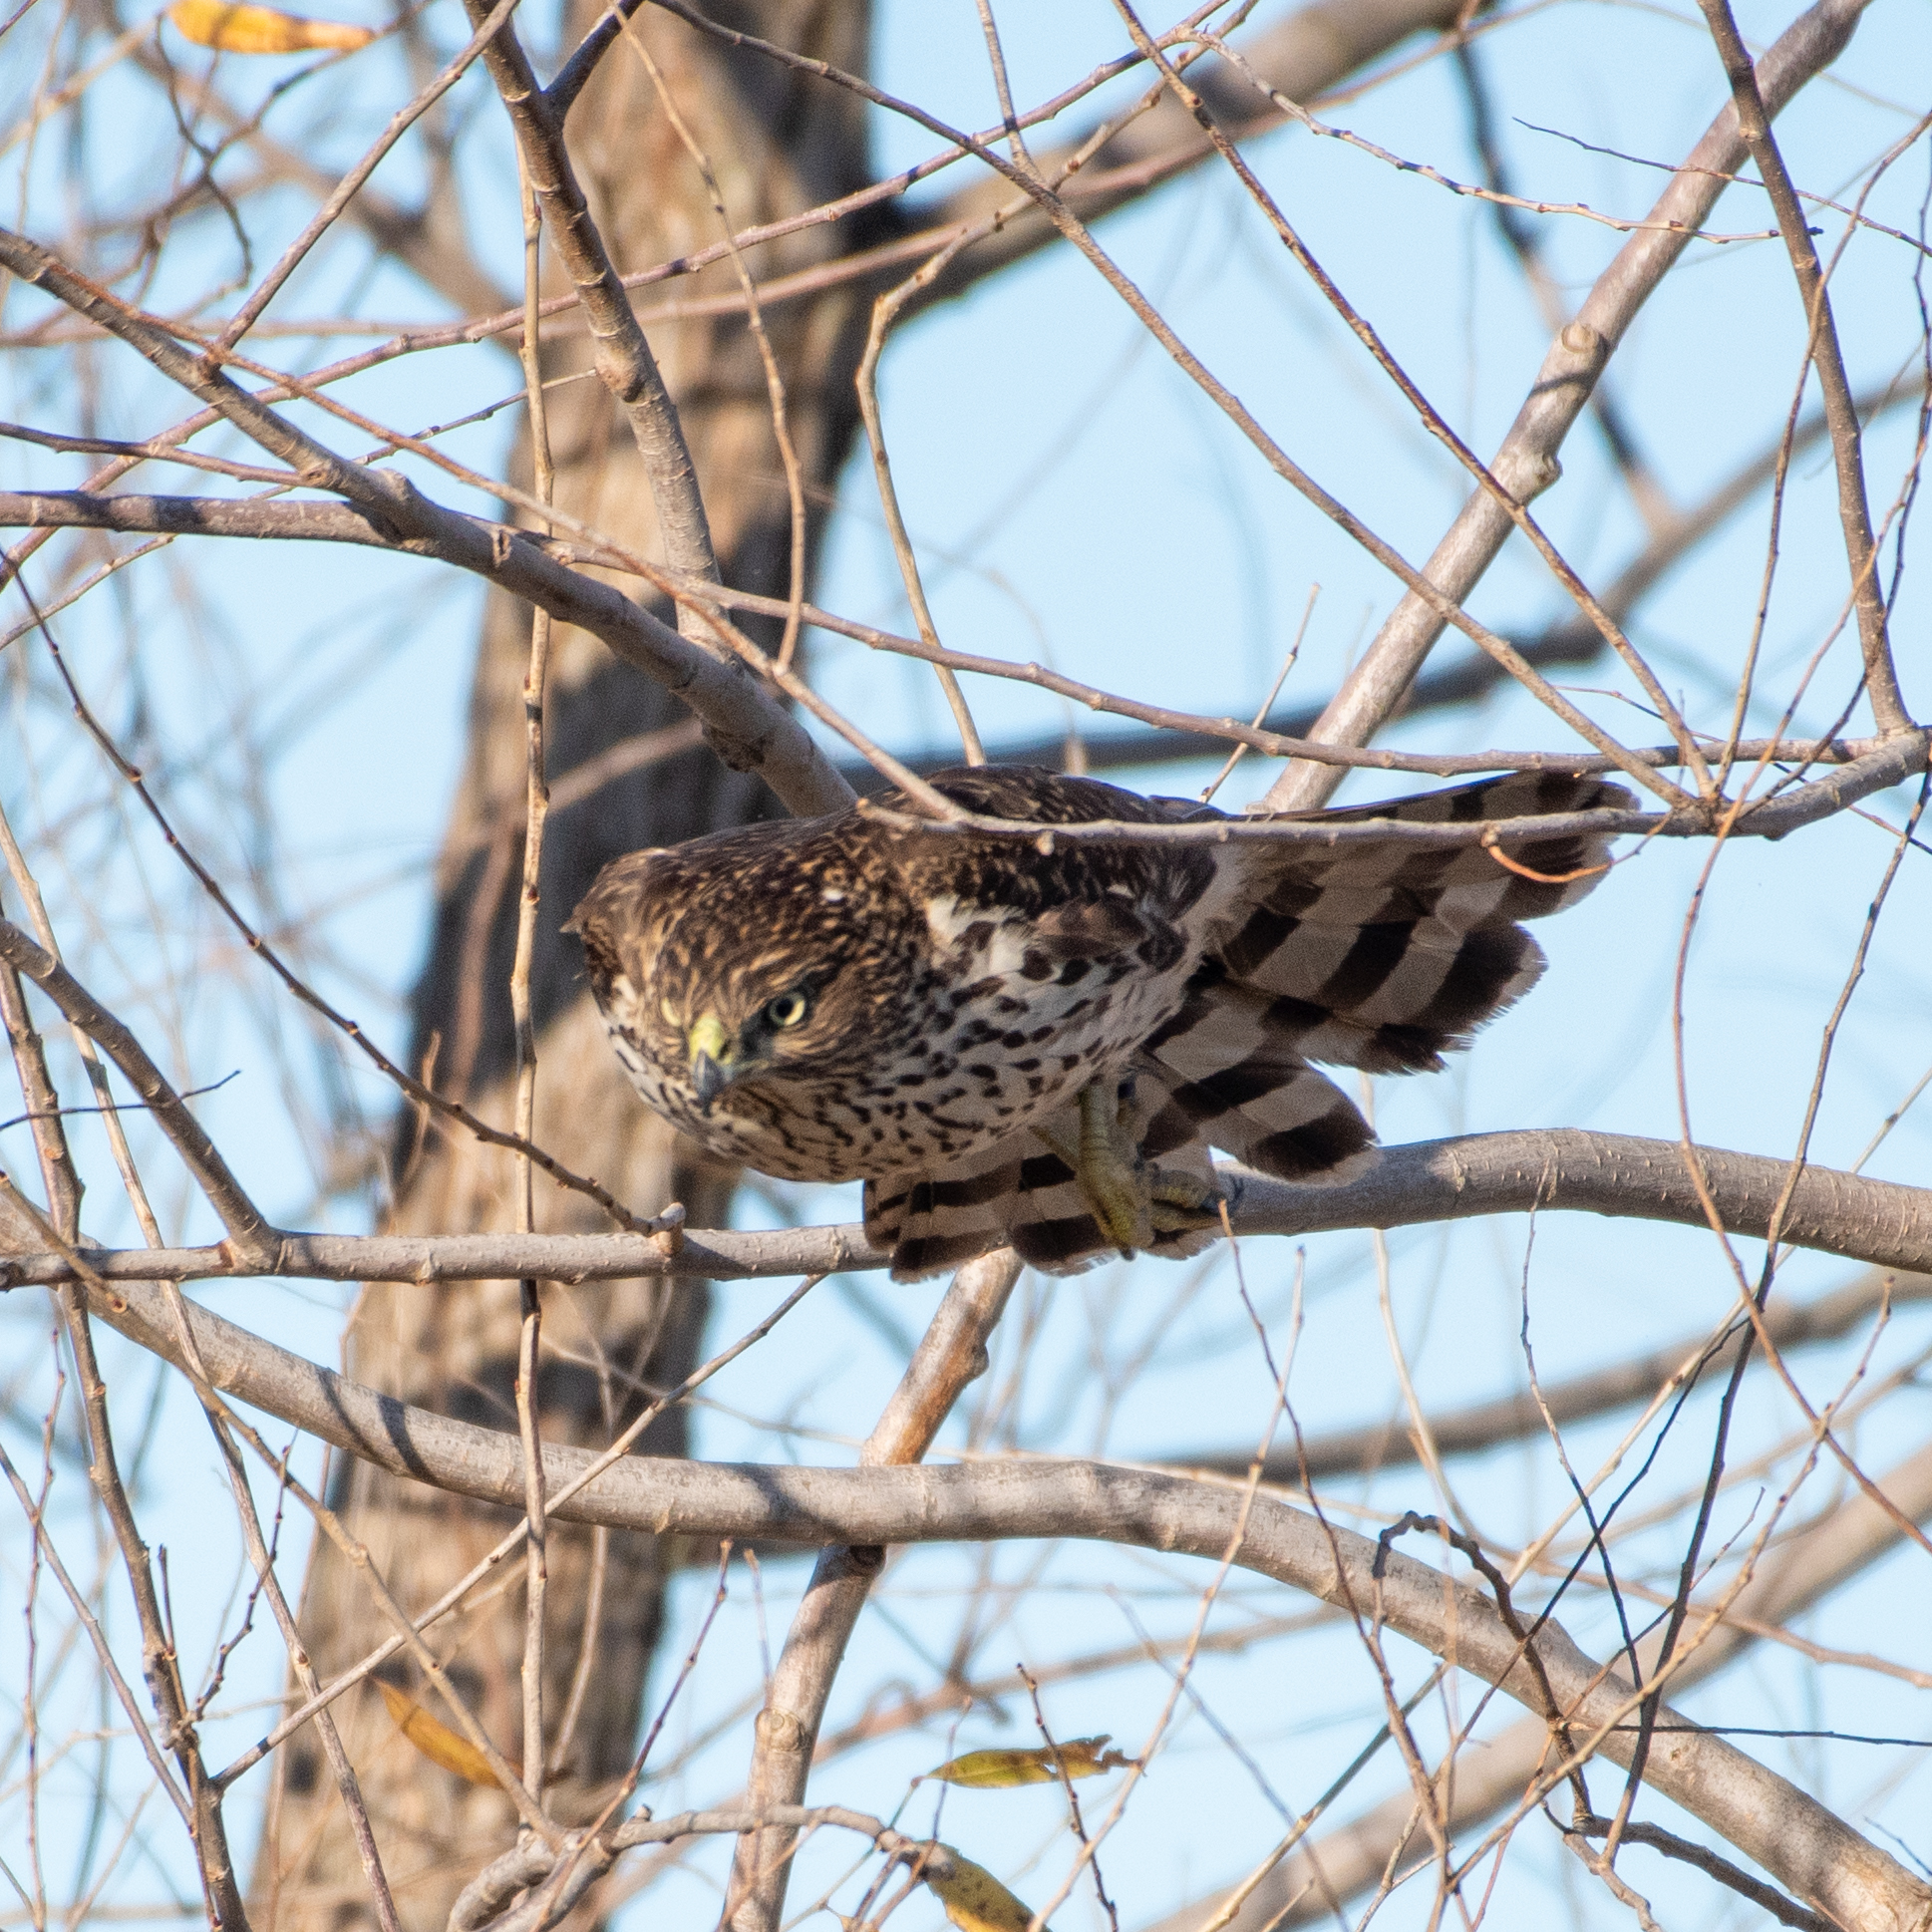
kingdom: Animalia
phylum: Chordata
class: Aves
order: Accipitriformes
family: Accipitridae
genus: Accipiter
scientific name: Accipiter cooperii
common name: Cooper's hawk
